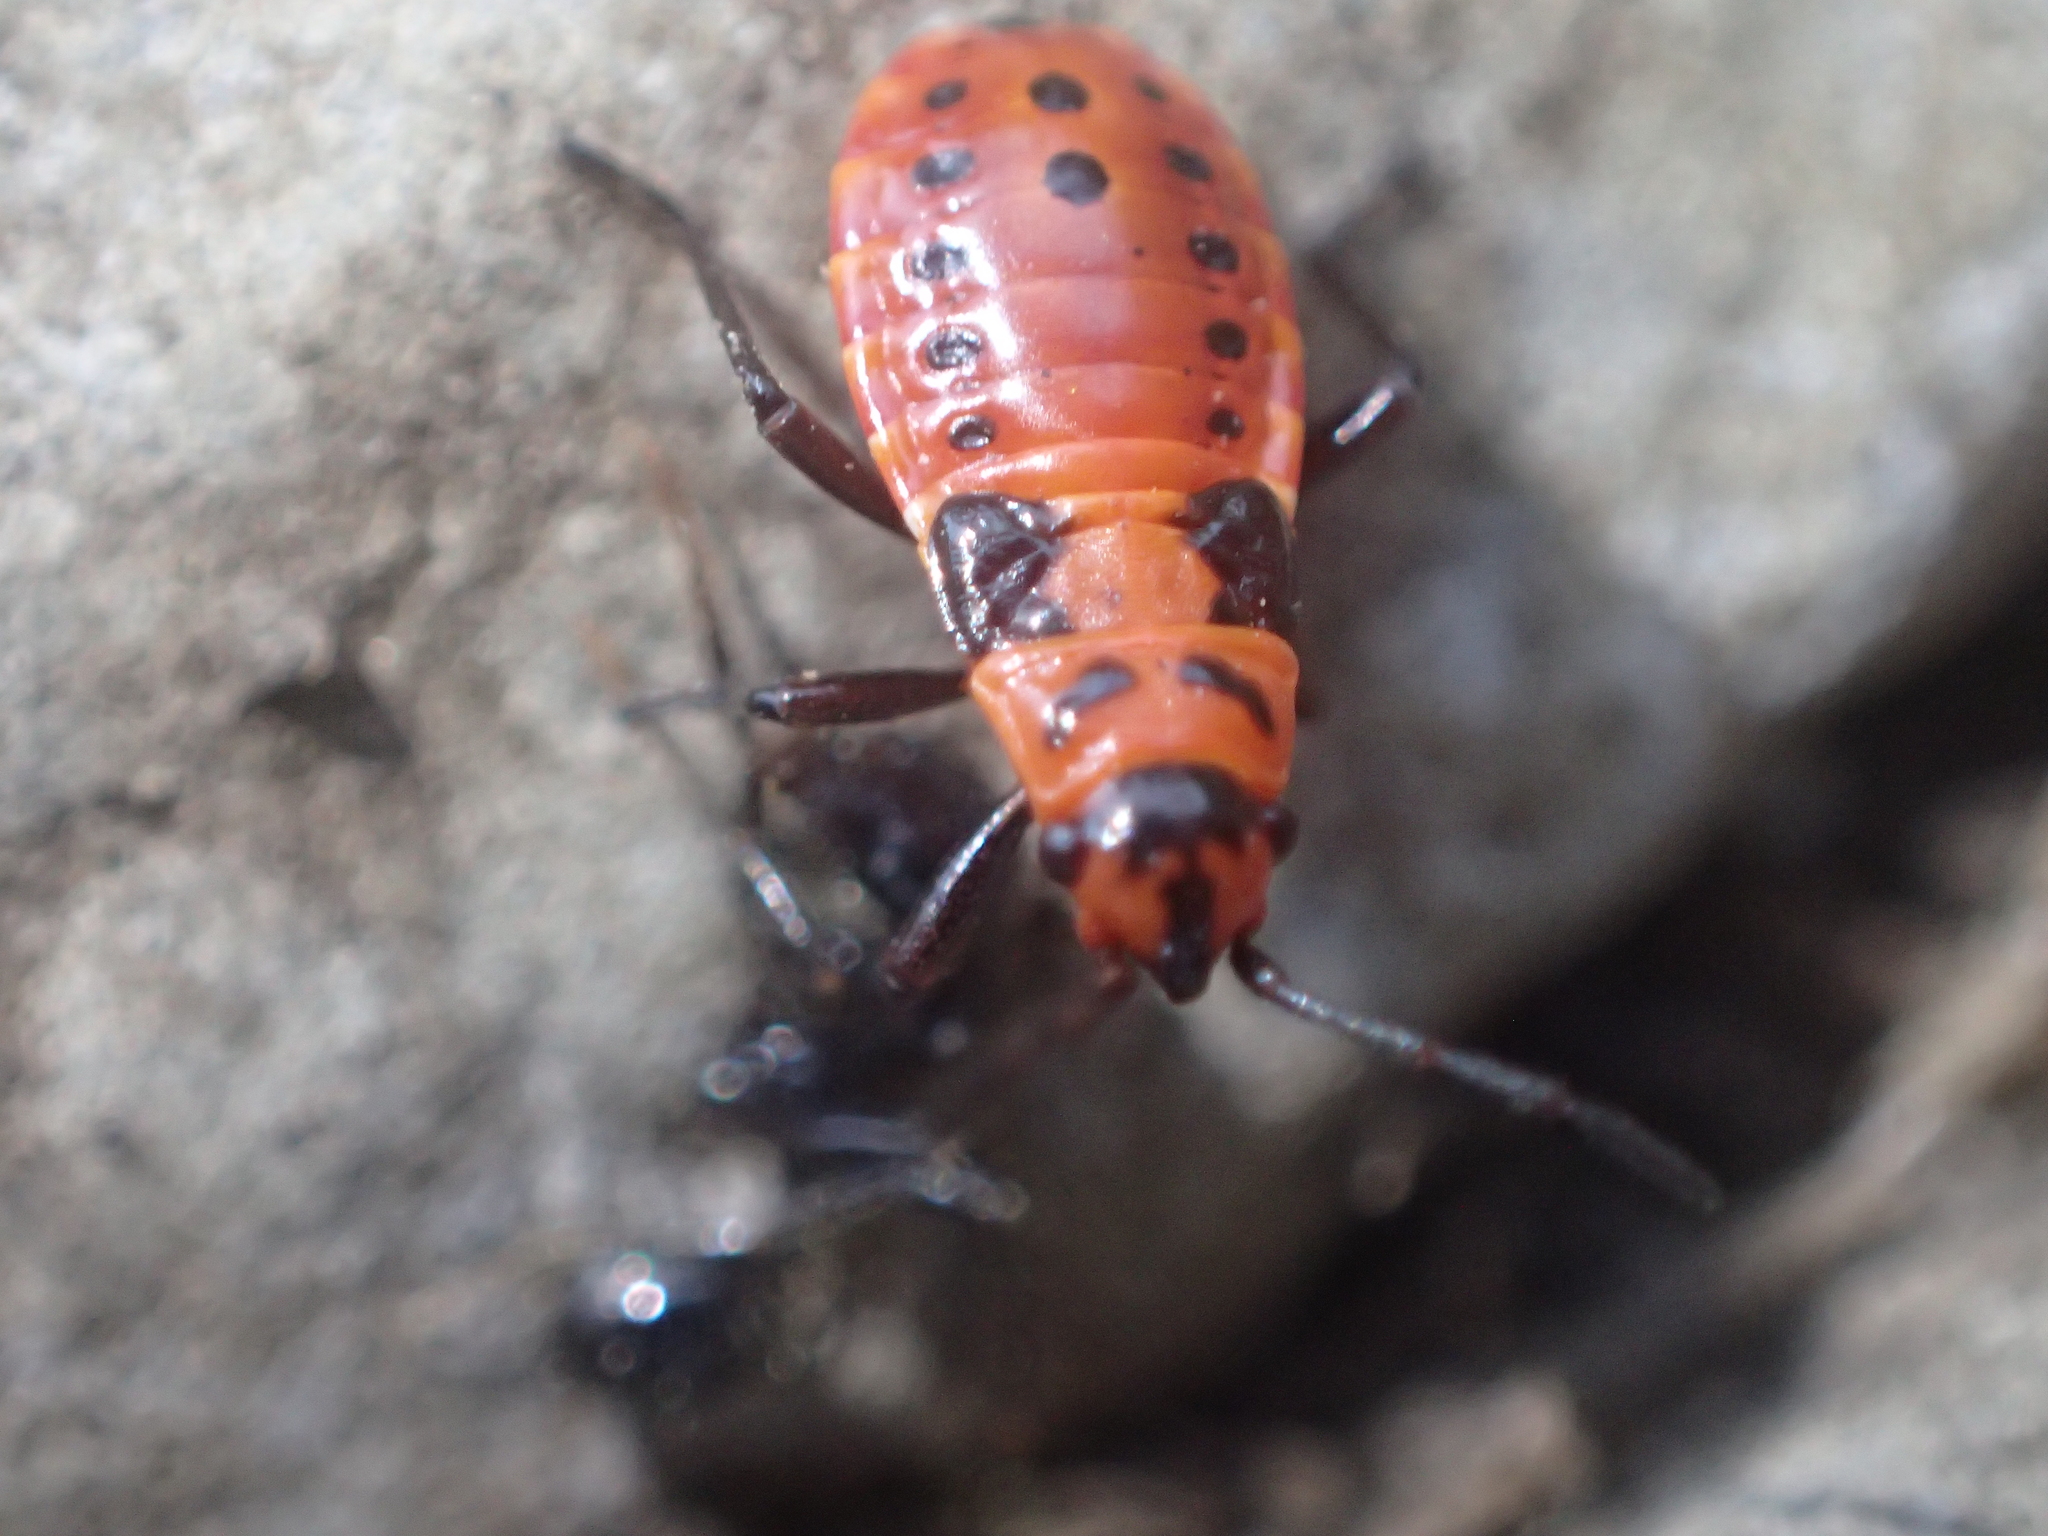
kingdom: Animalia
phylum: Arthropoda
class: Insecta
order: Hemiptera
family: Lygaeidae
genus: Spilostethus
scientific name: Spilostethus saxatilis
